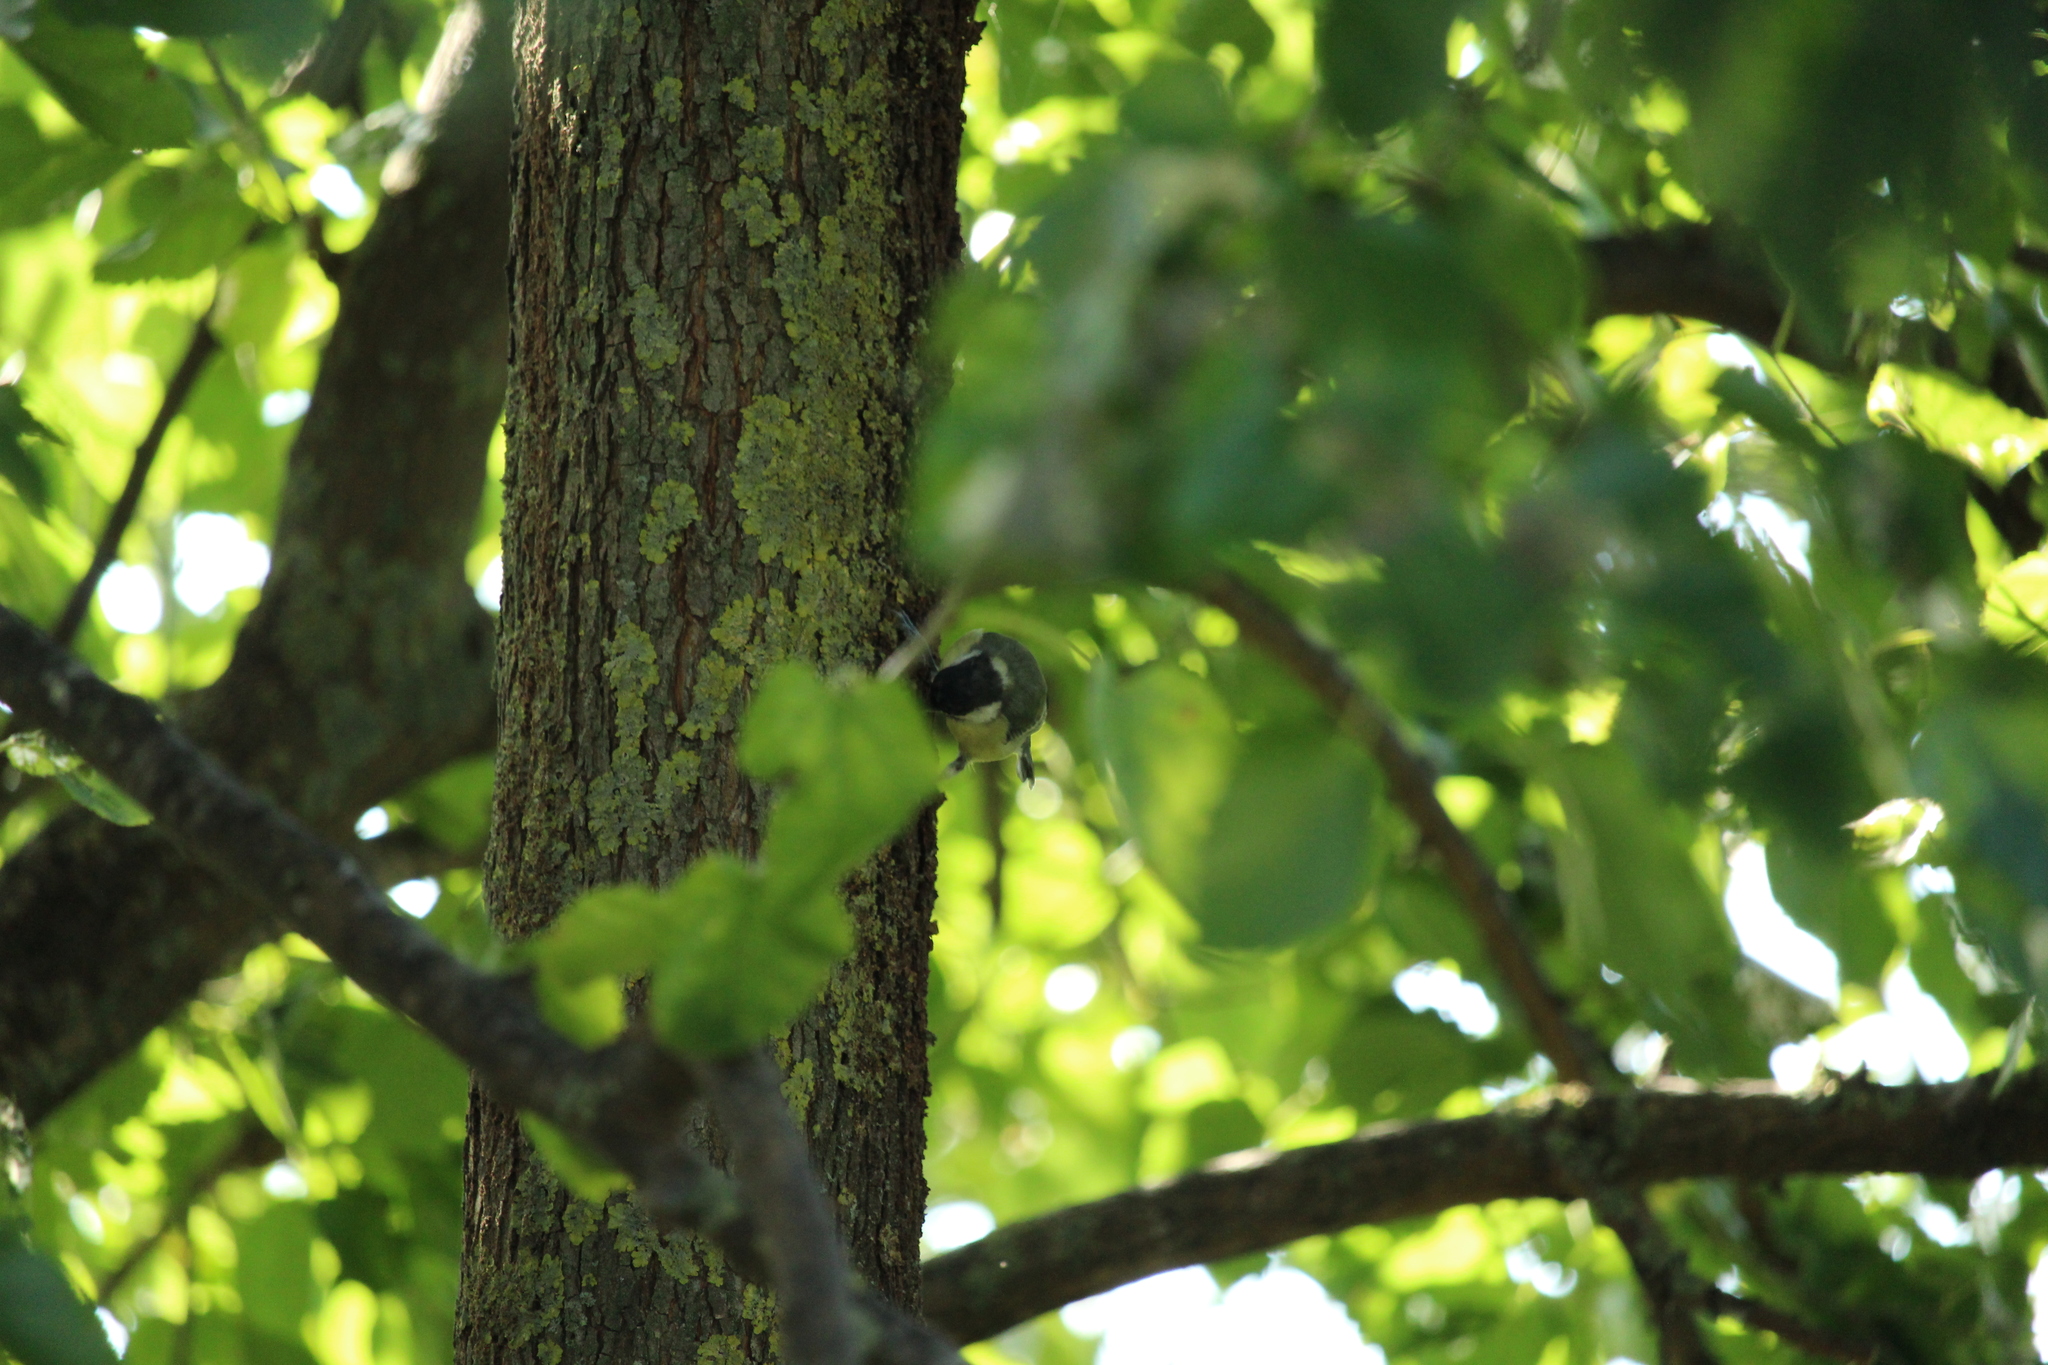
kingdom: Animalia
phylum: Chordata
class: Aves
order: Passeriformes
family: Paridae
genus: Parus
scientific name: Parus major
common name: Great tit
